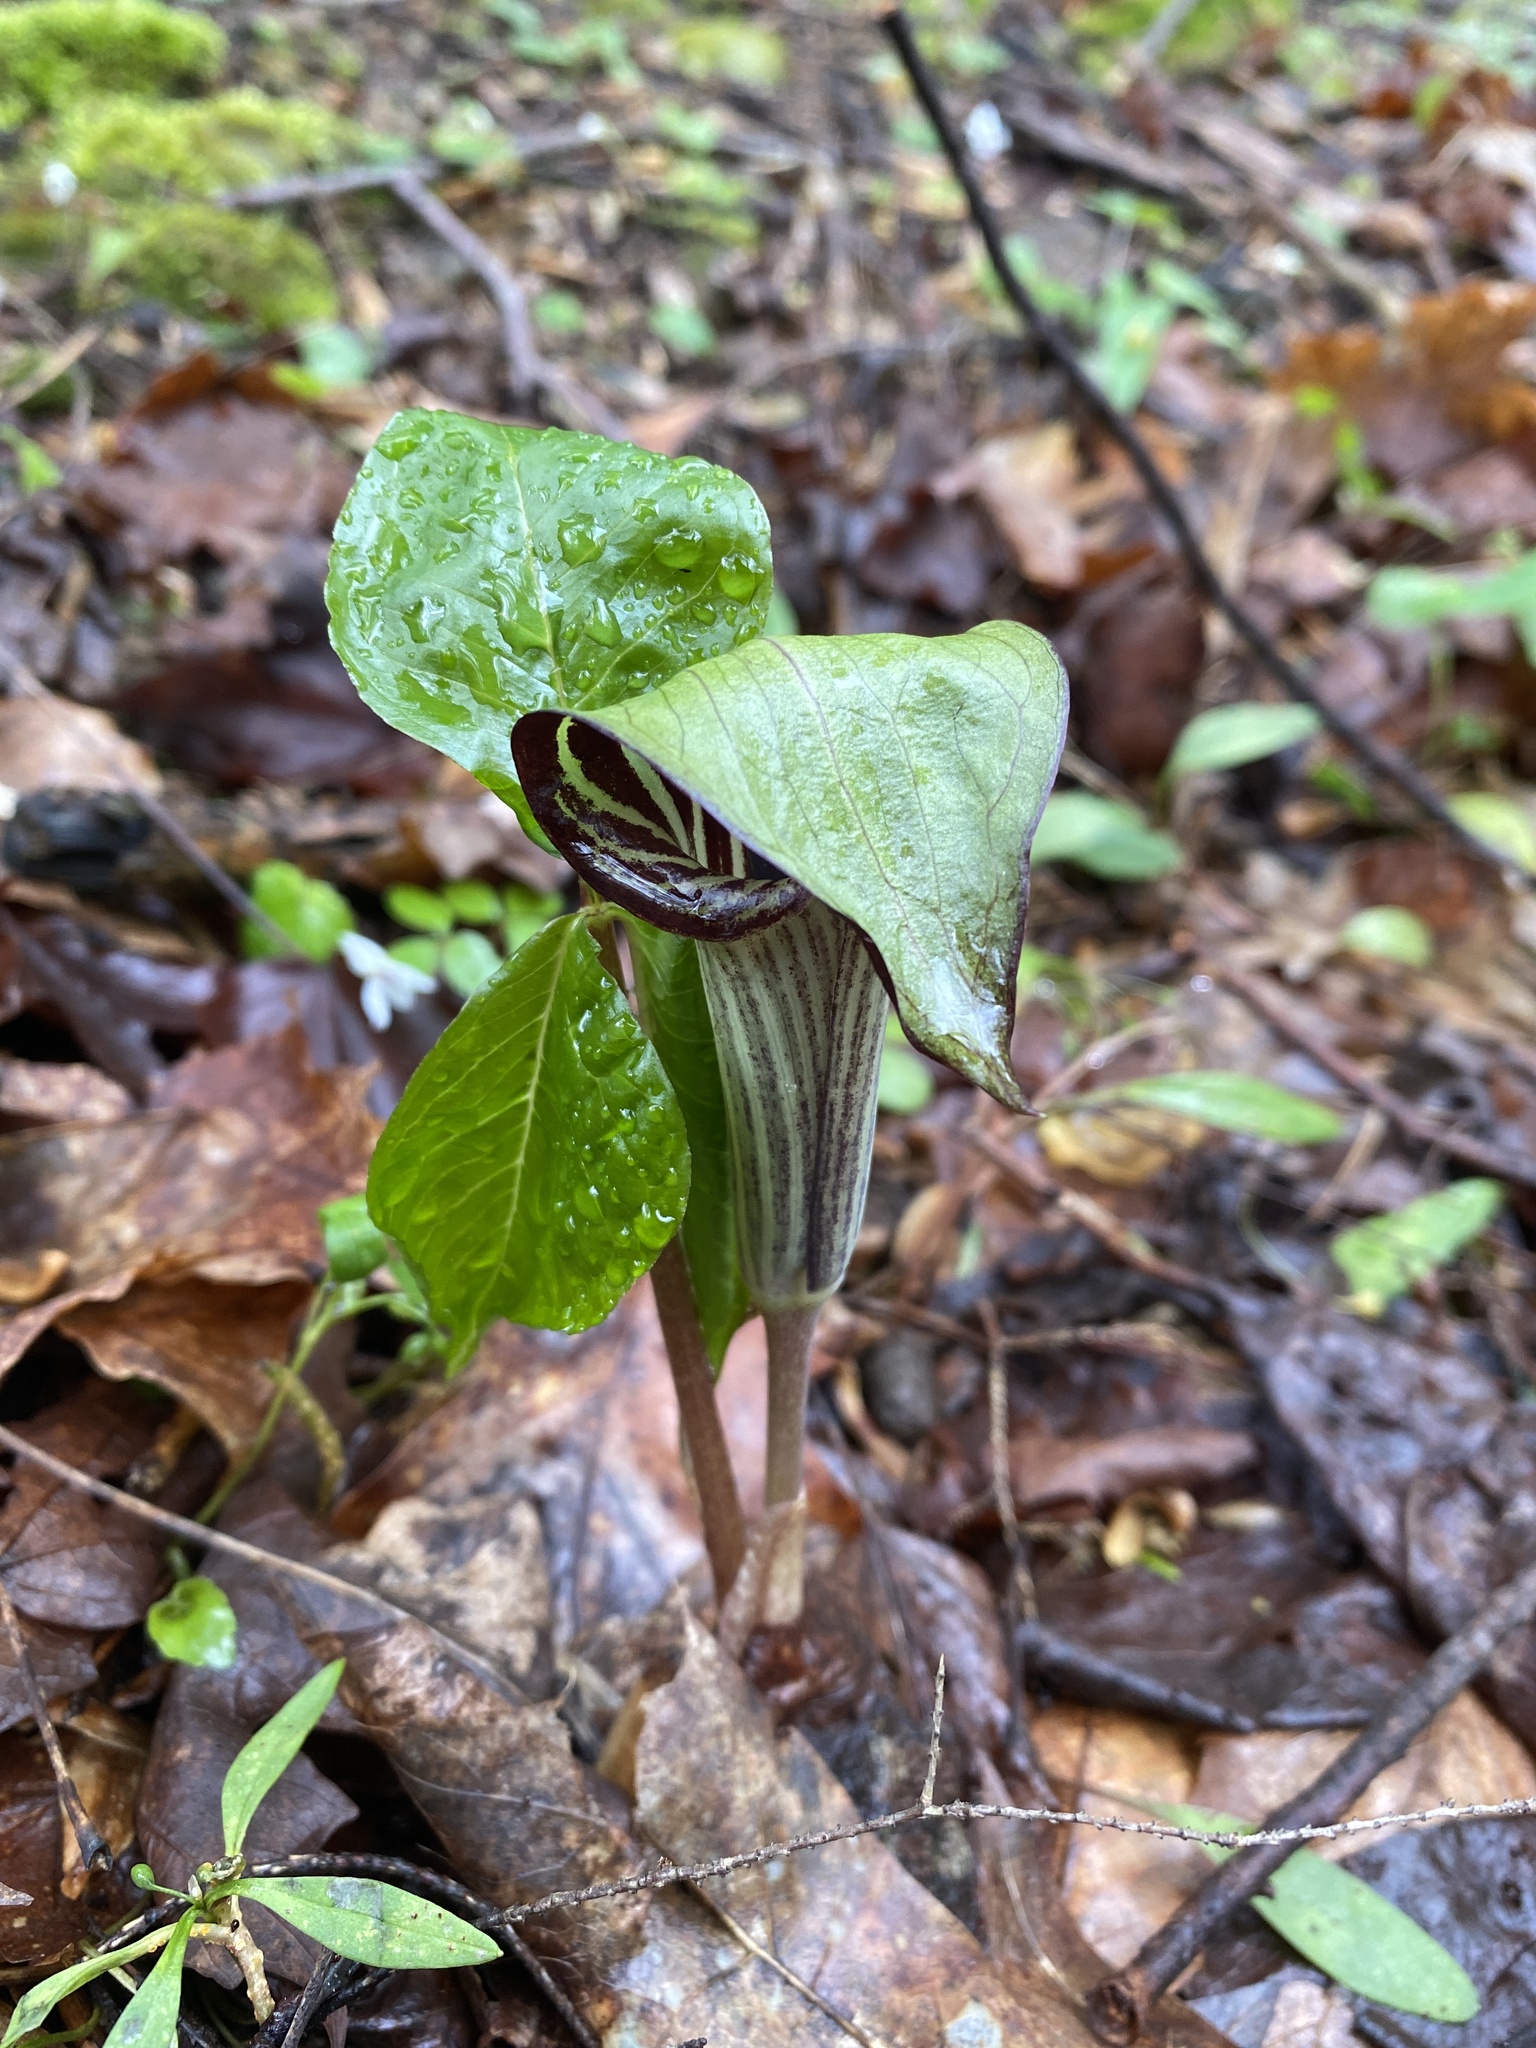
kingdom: Plantae
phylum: Tracheophyta
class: Liliopsida
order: Alismatales
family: Araceae
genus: Arisaema
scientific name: Arisaema triphyllum
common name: Jack-in-the-pulpit
